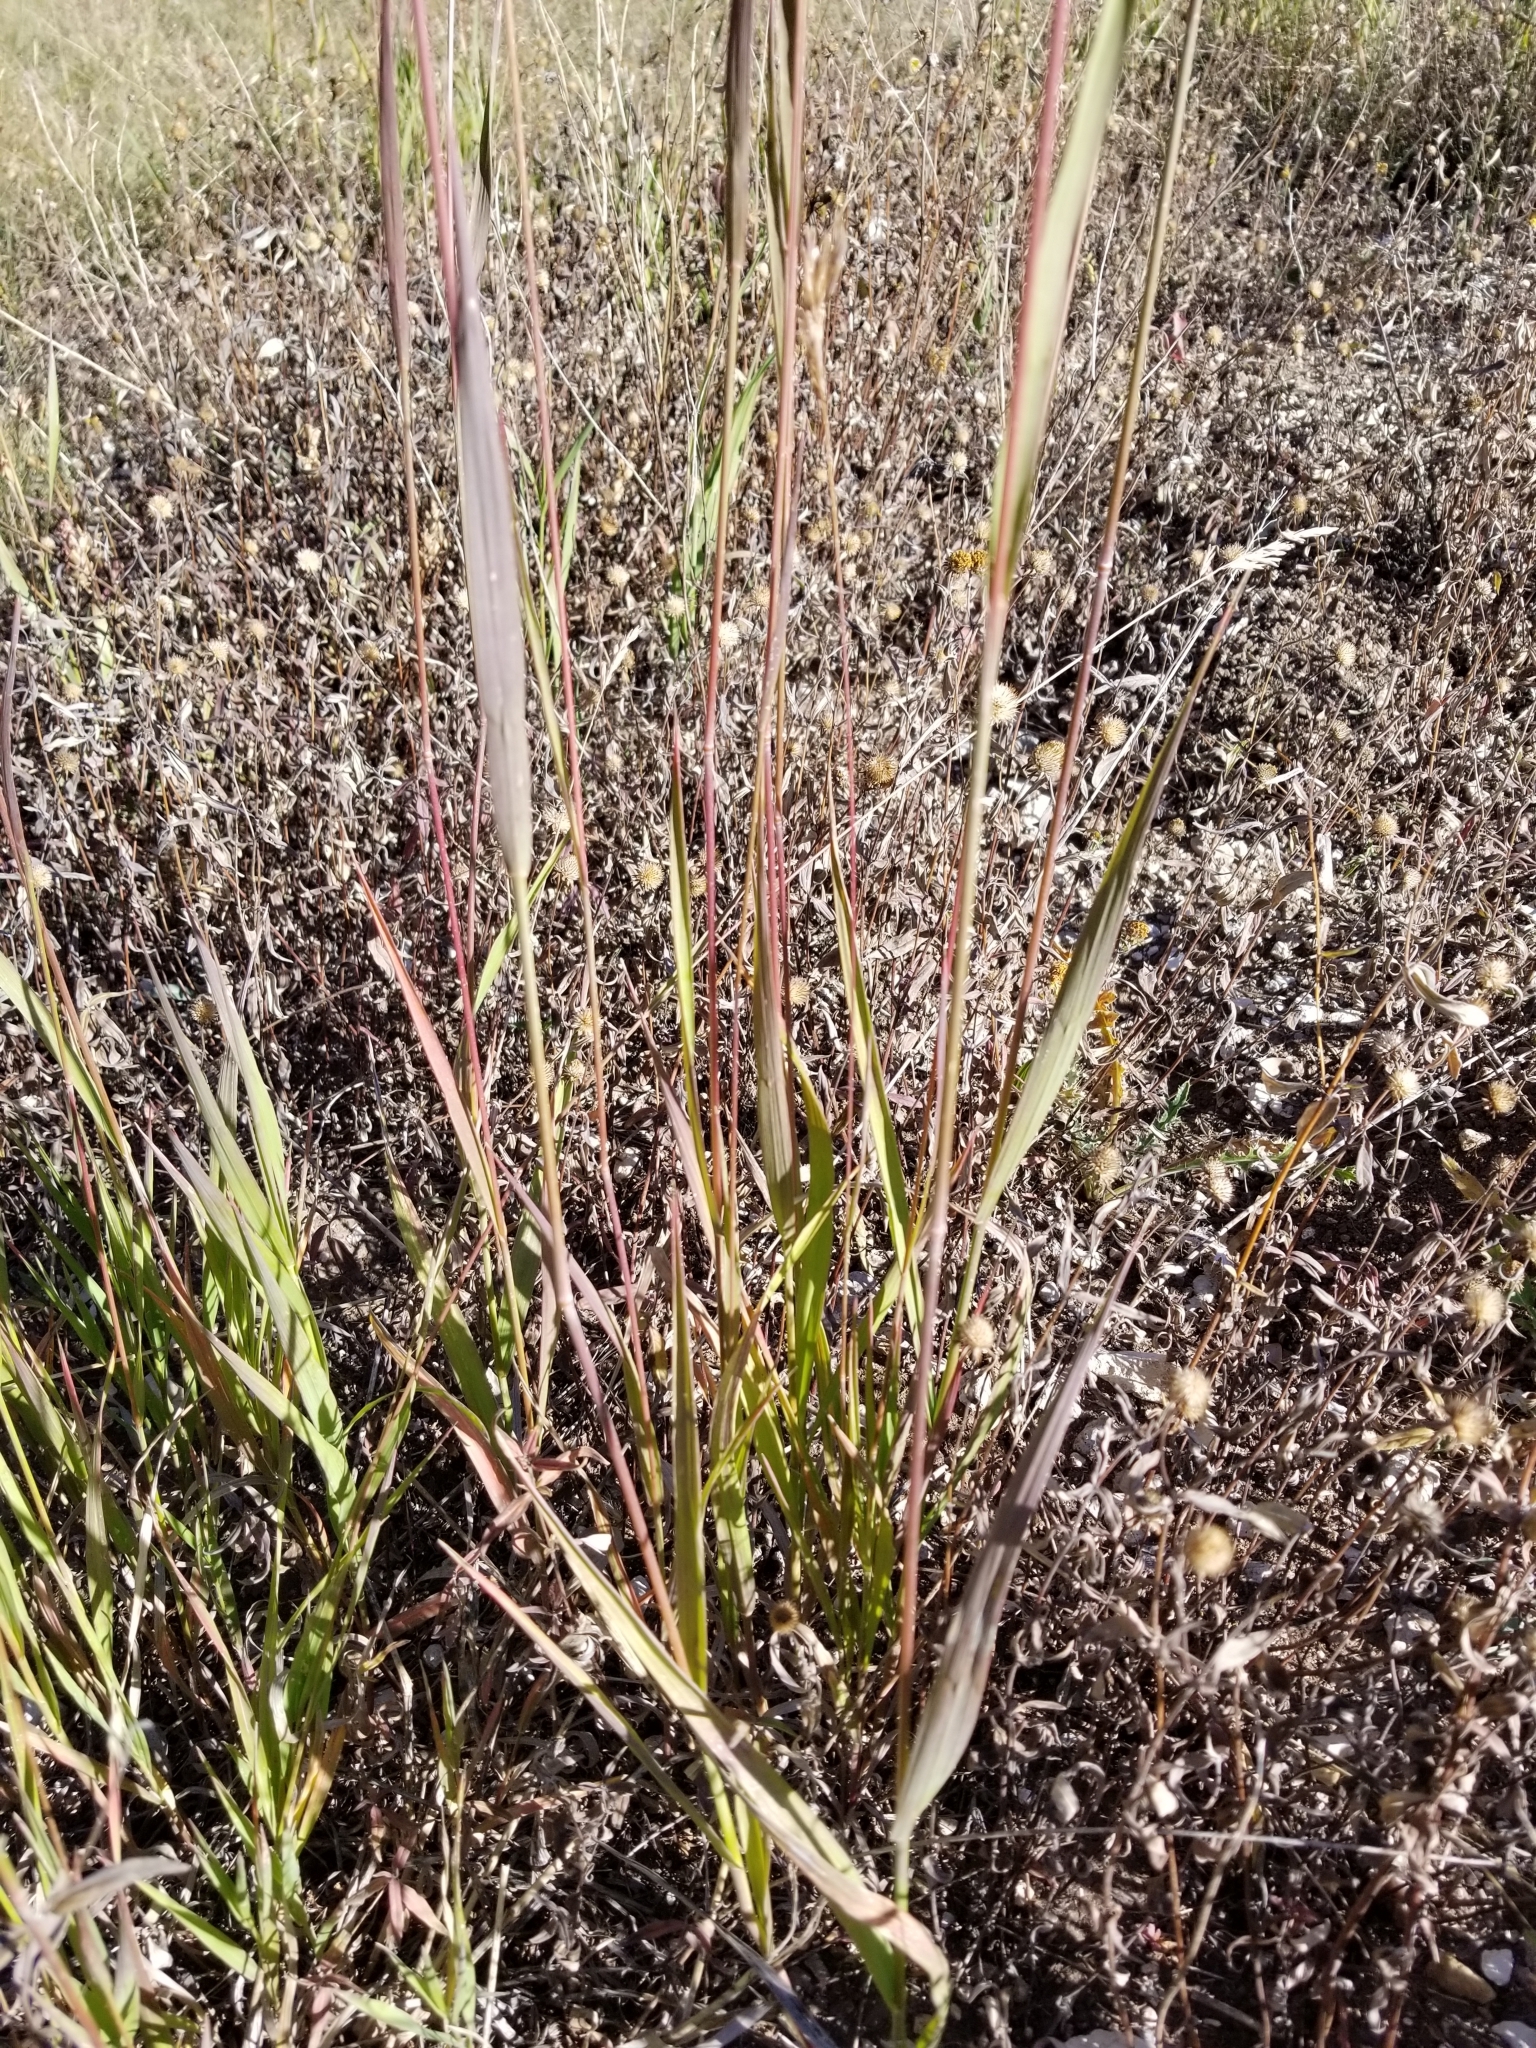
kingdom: Plantae
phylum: Tracheophyta
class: Liliopsida
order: Poales
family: Poaceae
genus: Bromus
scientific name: Bromus inermis
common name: Smooth brome
